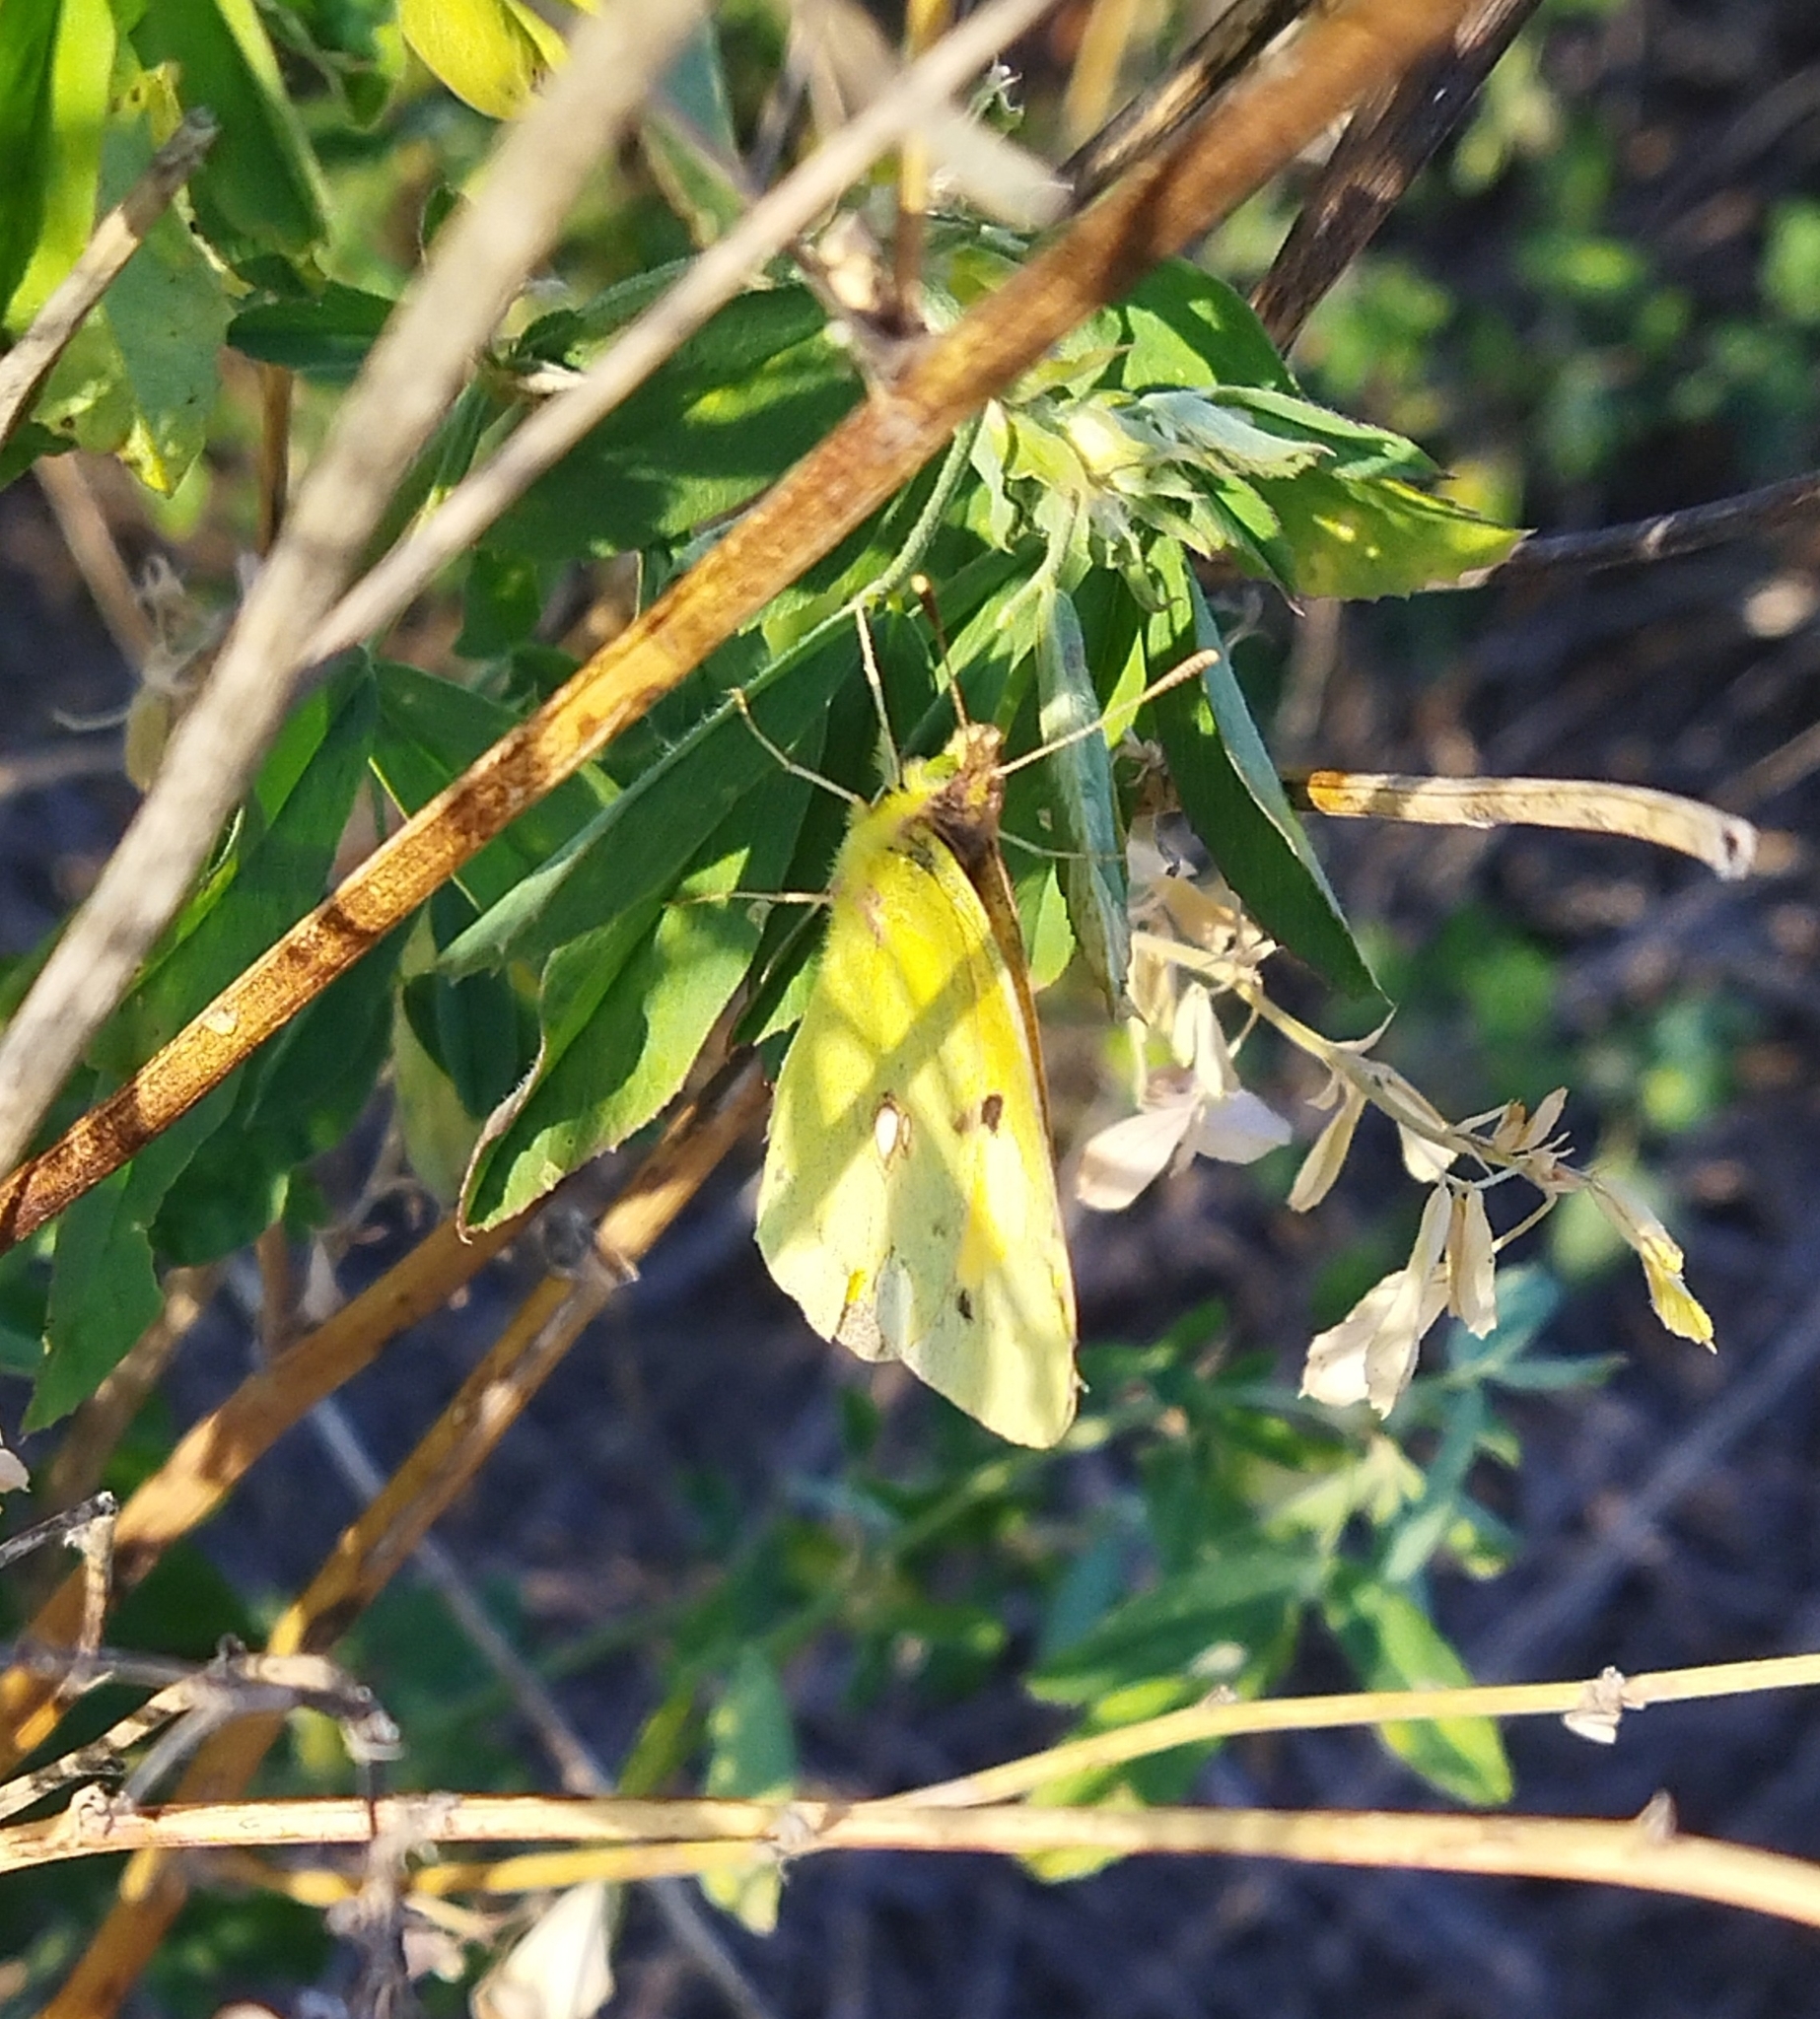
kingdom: Animalia
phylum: Arthropoda
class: Insecta
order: Lepidoptera
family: Pieridae
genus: Colias
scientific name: Colias croceus
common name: Clouded yellow
